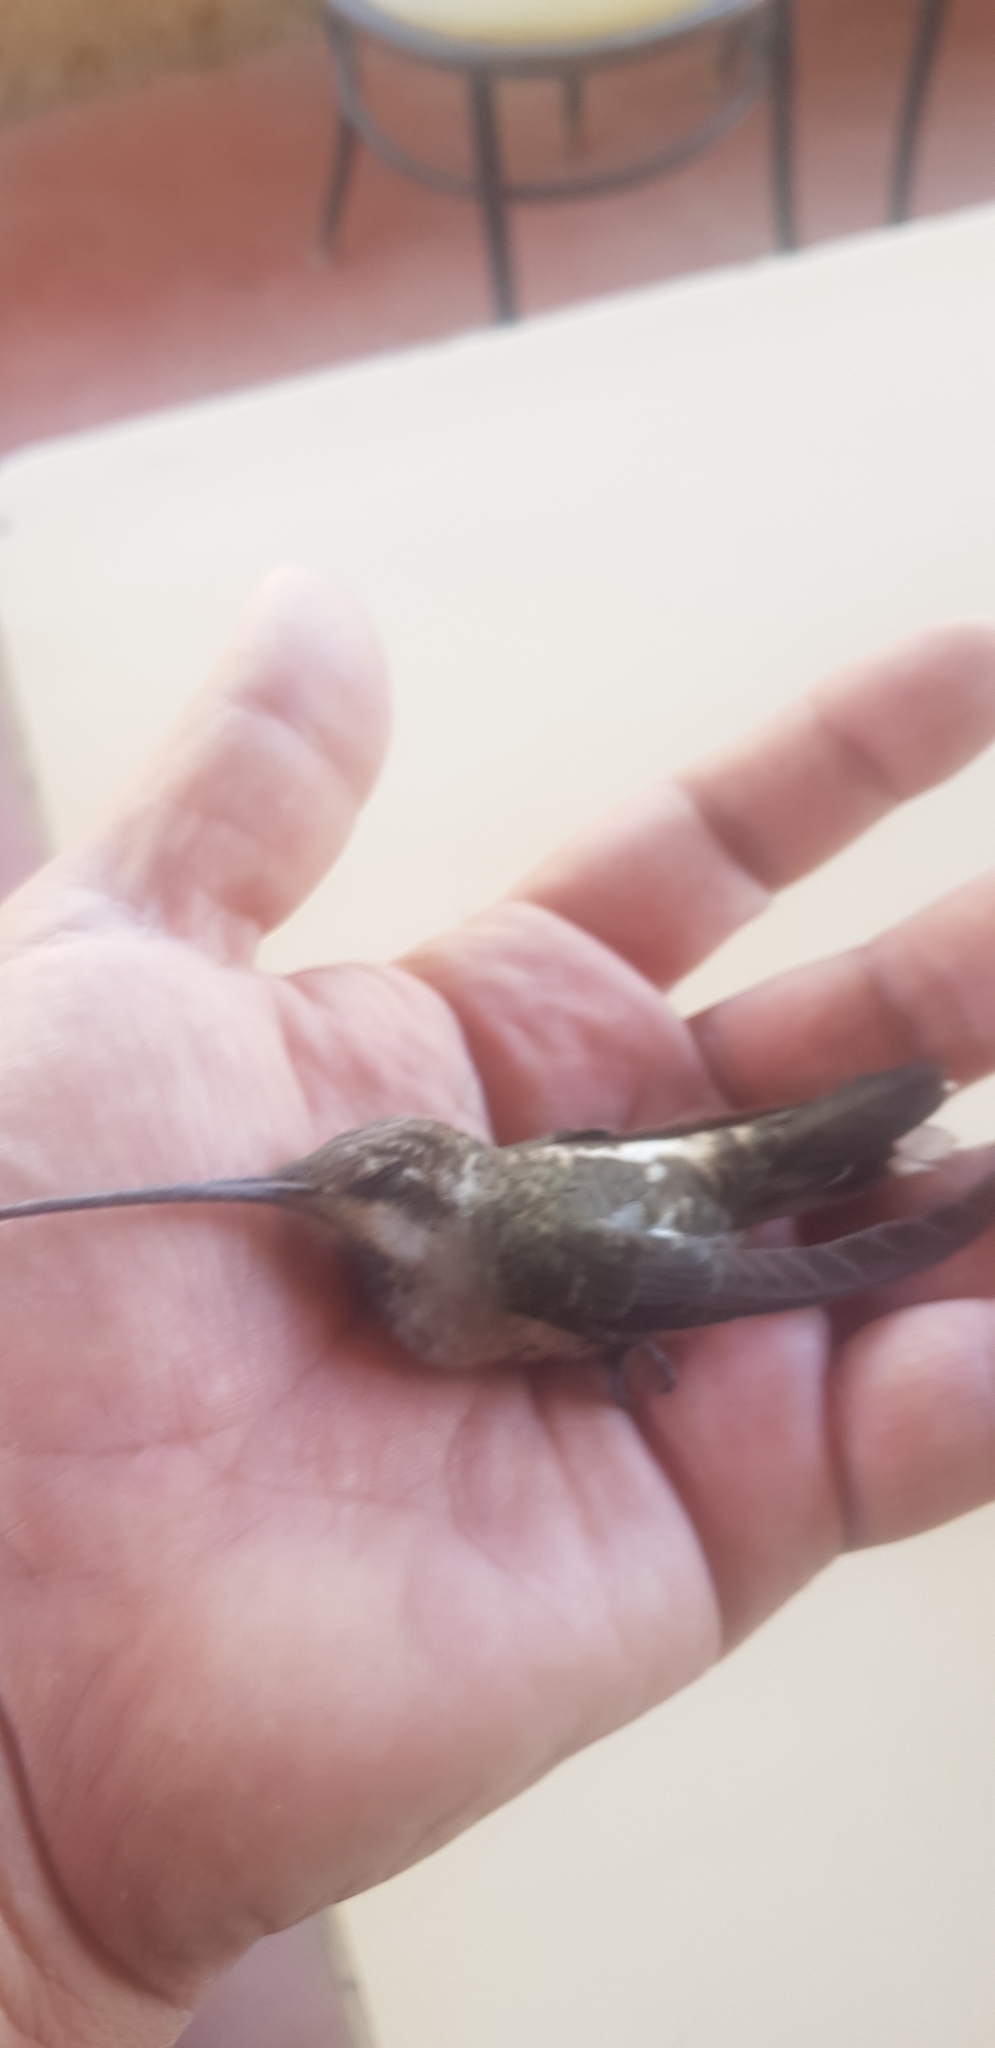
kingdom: Animalia
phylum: Chordata
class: Aves
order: Apodiformes
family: Trochilidae
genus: Heliomaster
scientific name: Heliomaster constantii
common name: Plain-capped starthroat
